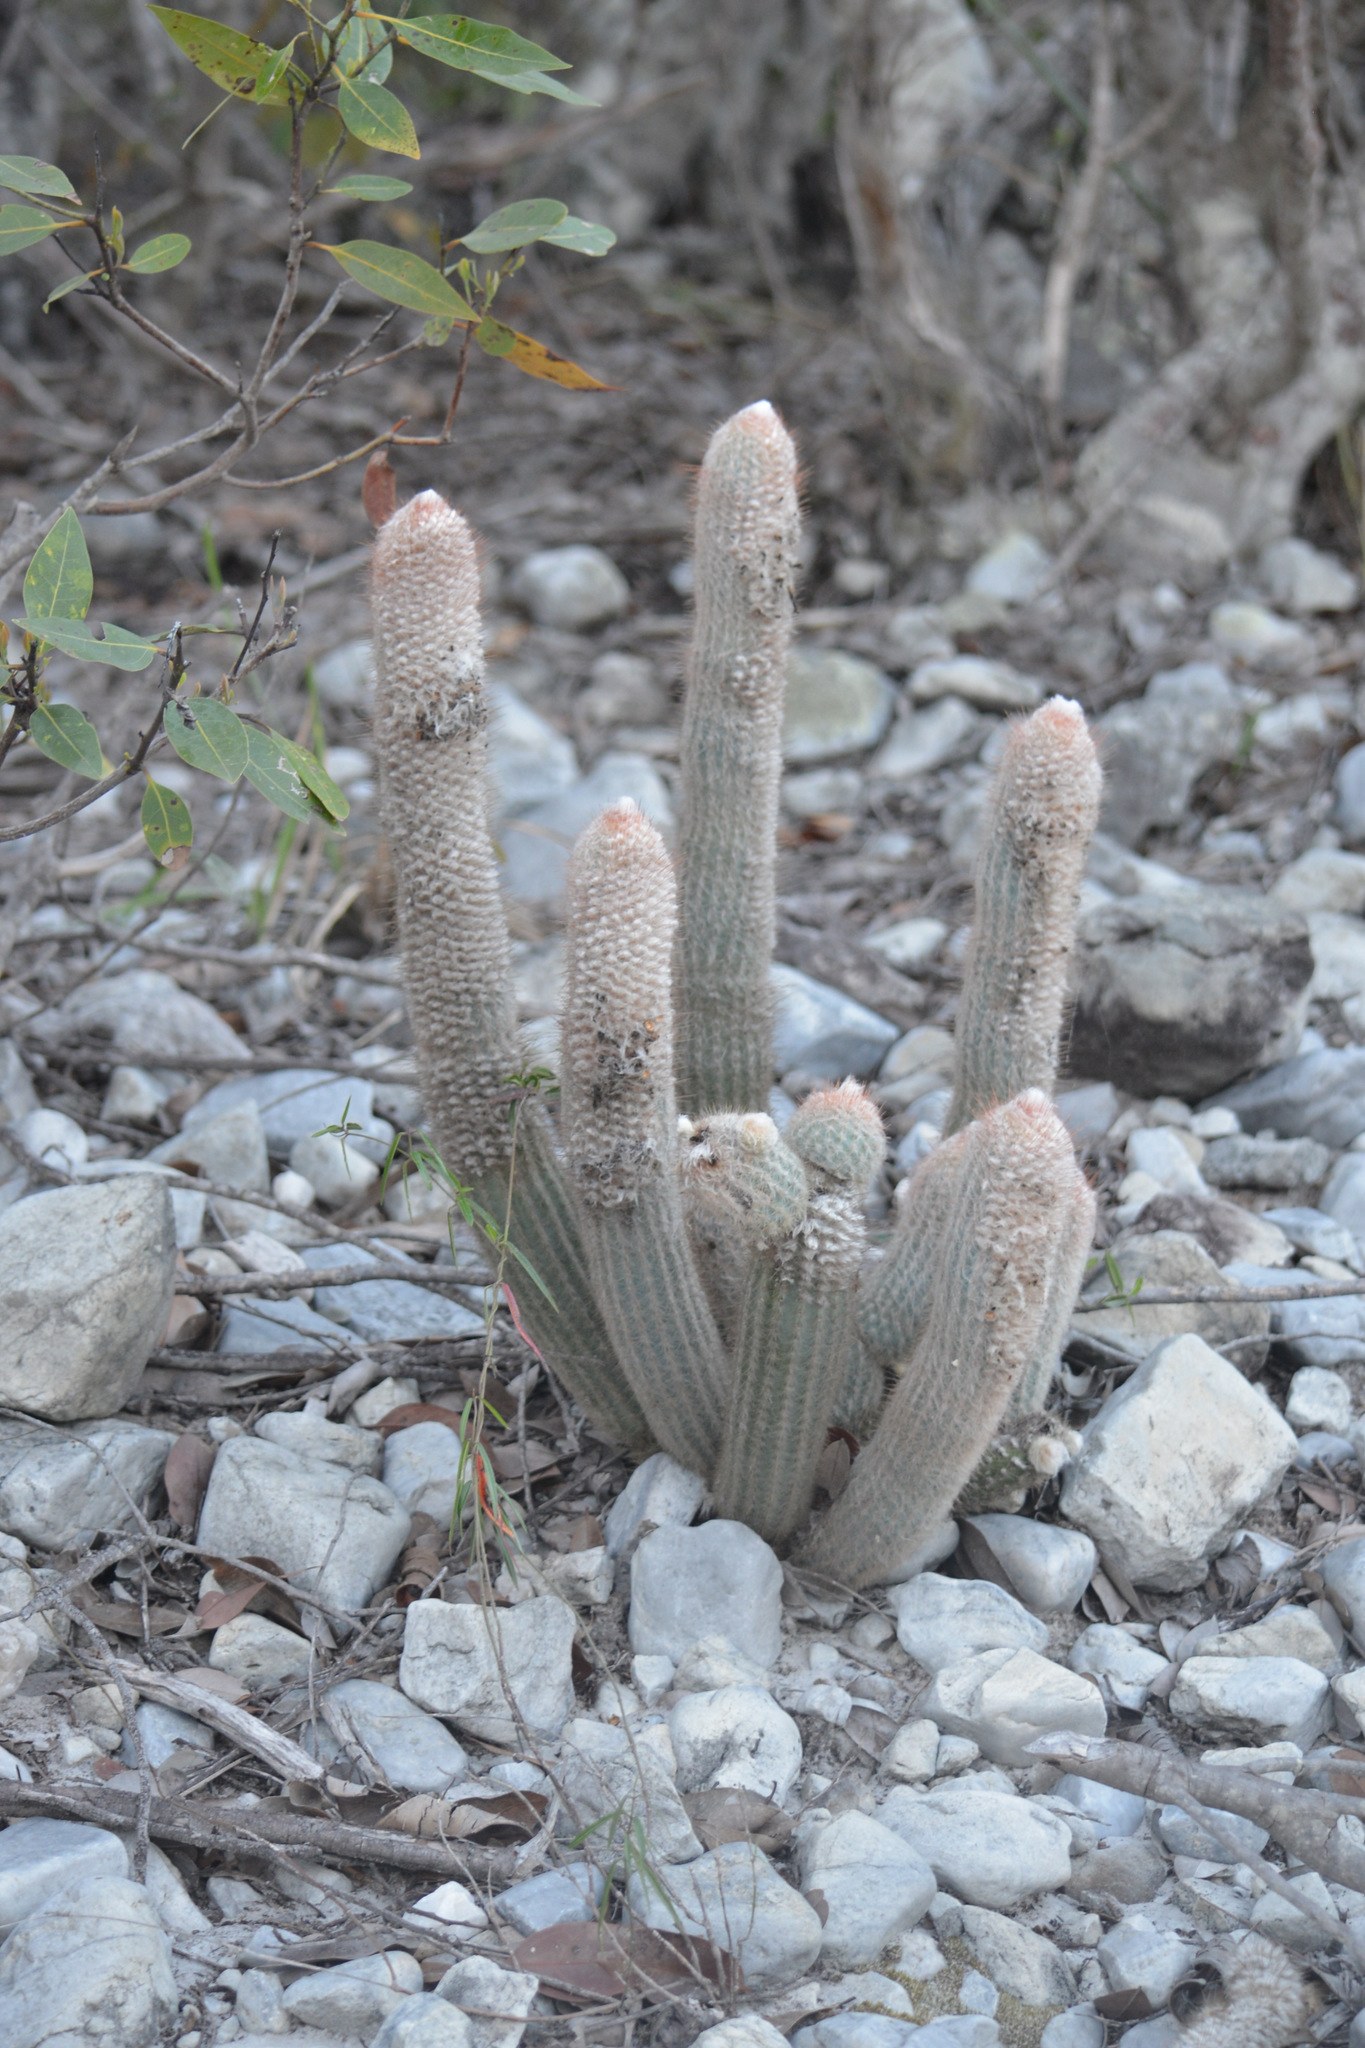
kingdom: Plantae
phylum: Tracheophyta
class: Magnoliopsida
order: Caryophyllales
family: Cactaceae
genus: Micranthocereus
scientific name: Micranthocereus flaviflorus
